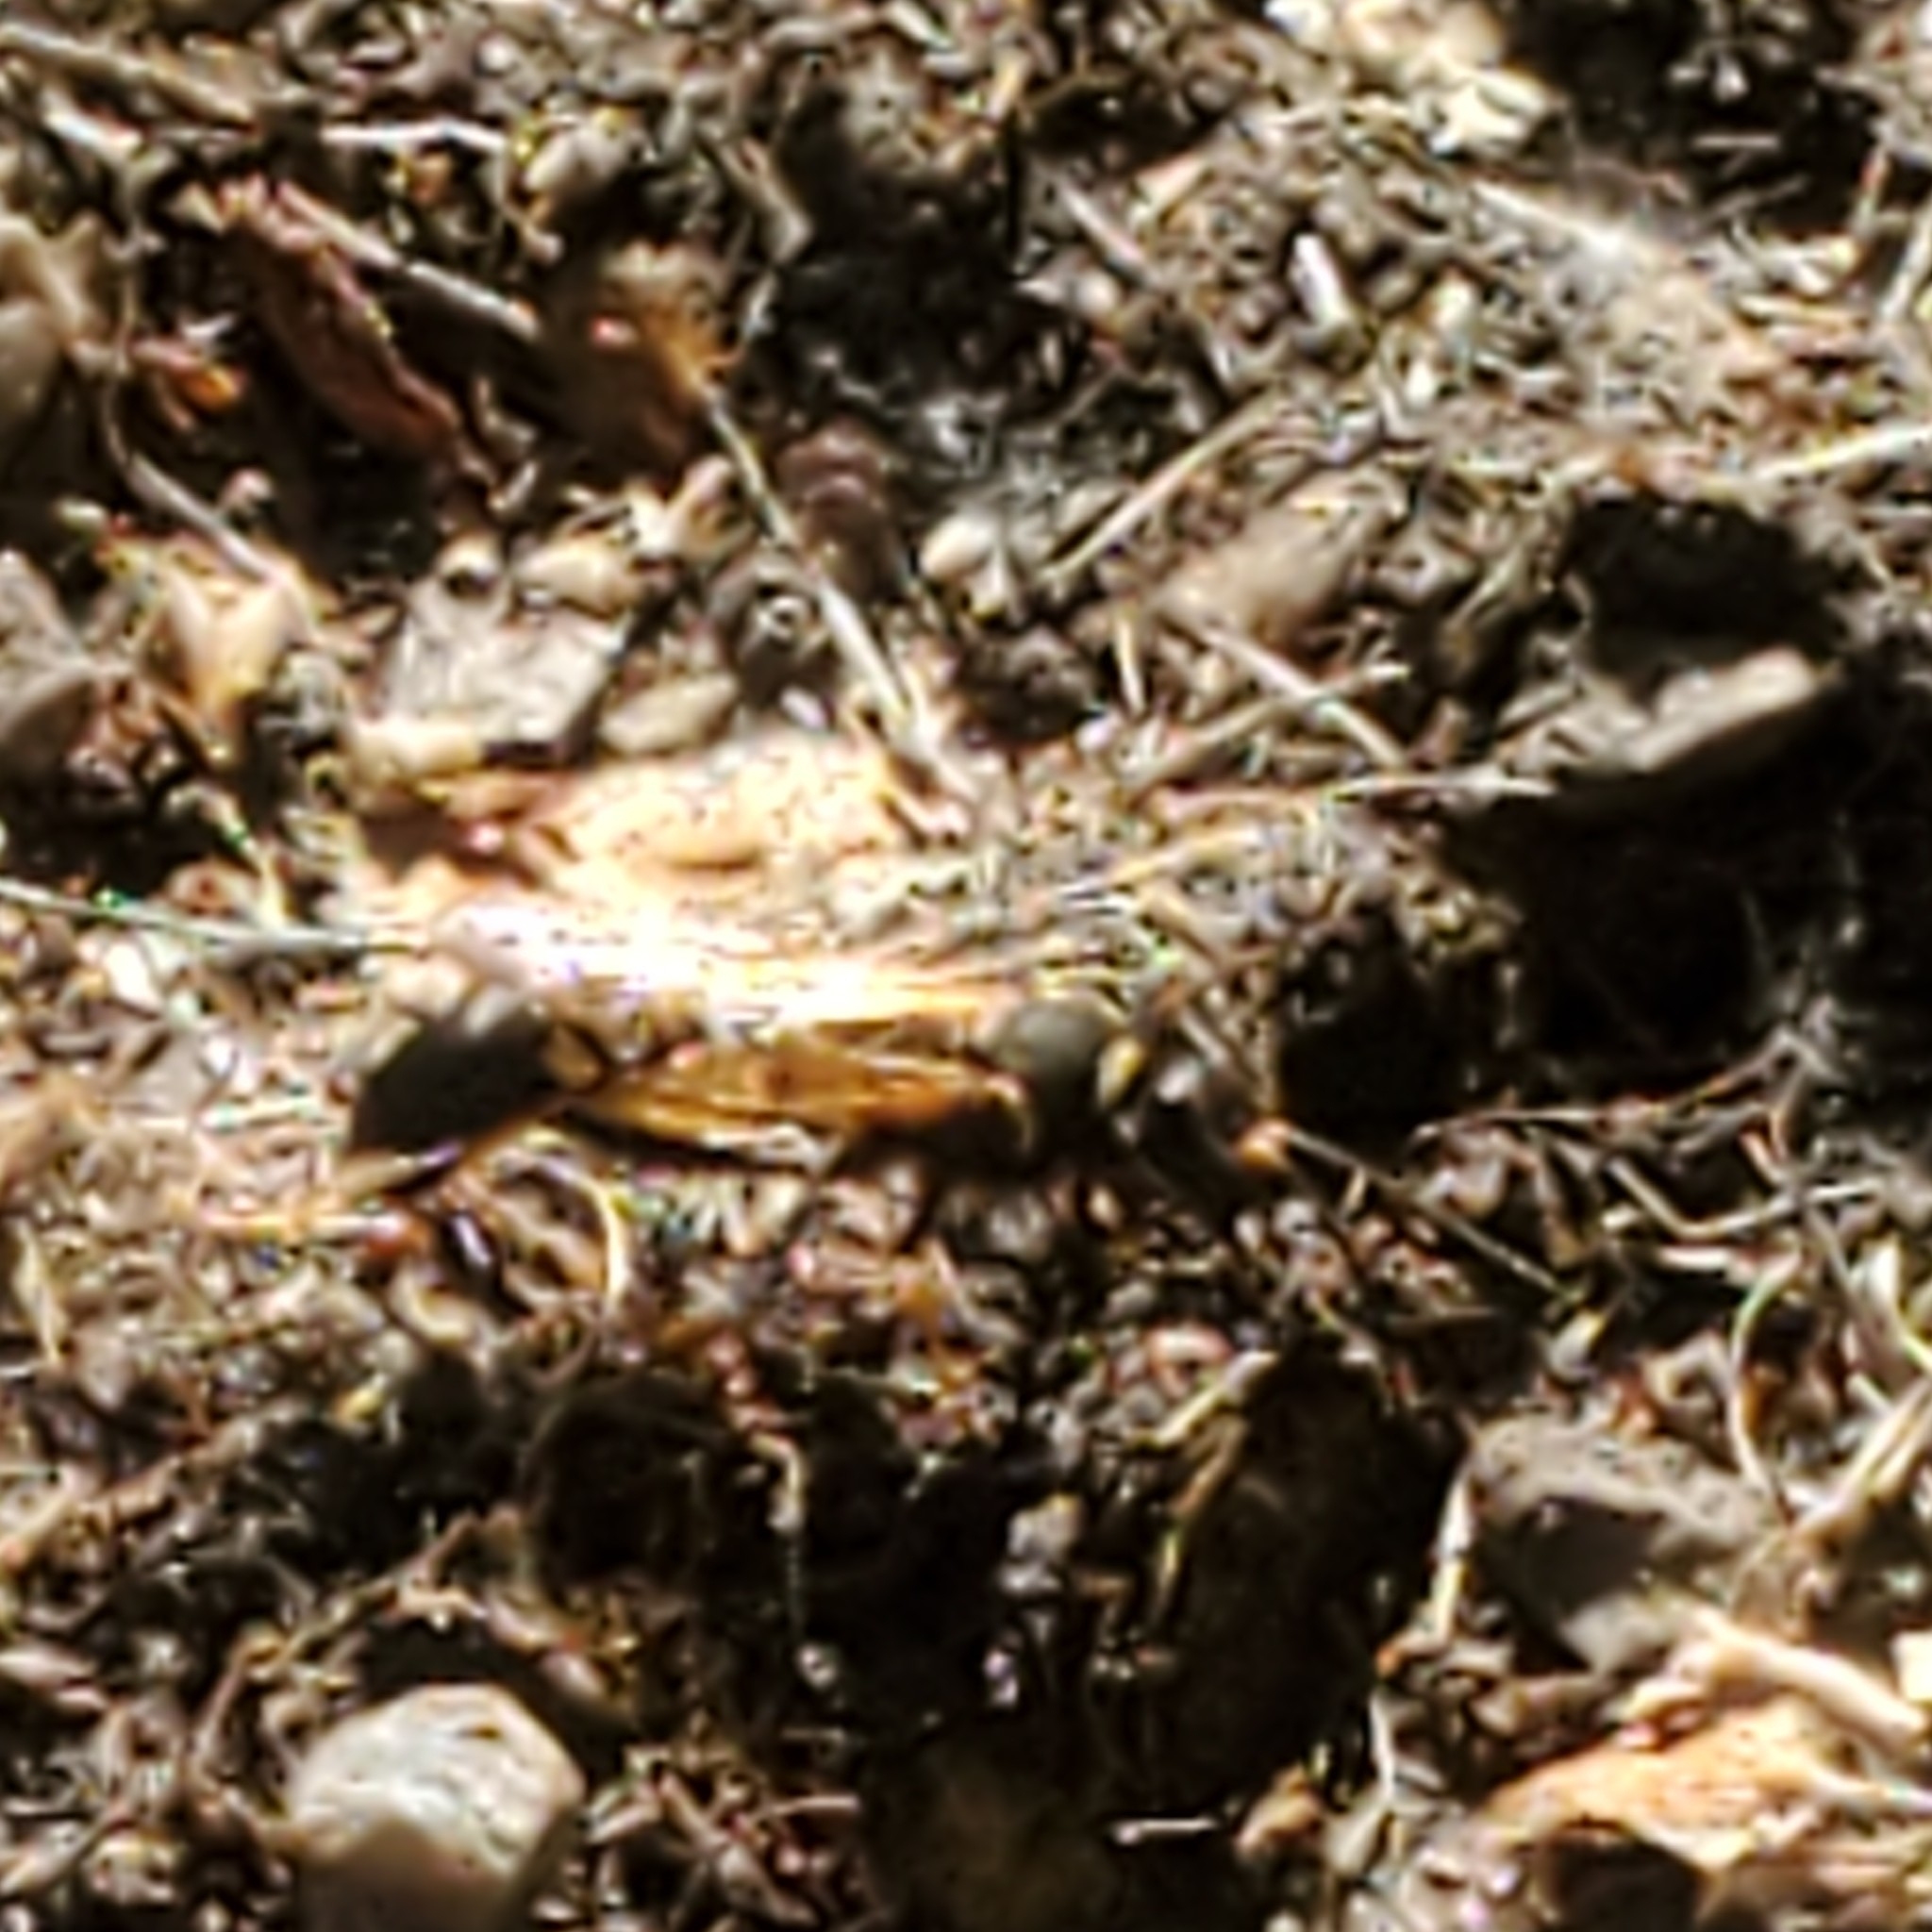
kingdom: Animalia
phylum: Arthropoda
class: Insecta
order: Hymenoptera
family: Sphecidae
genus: Sceliphron
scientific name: Sceliphron caementarium
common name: Mud dauber
